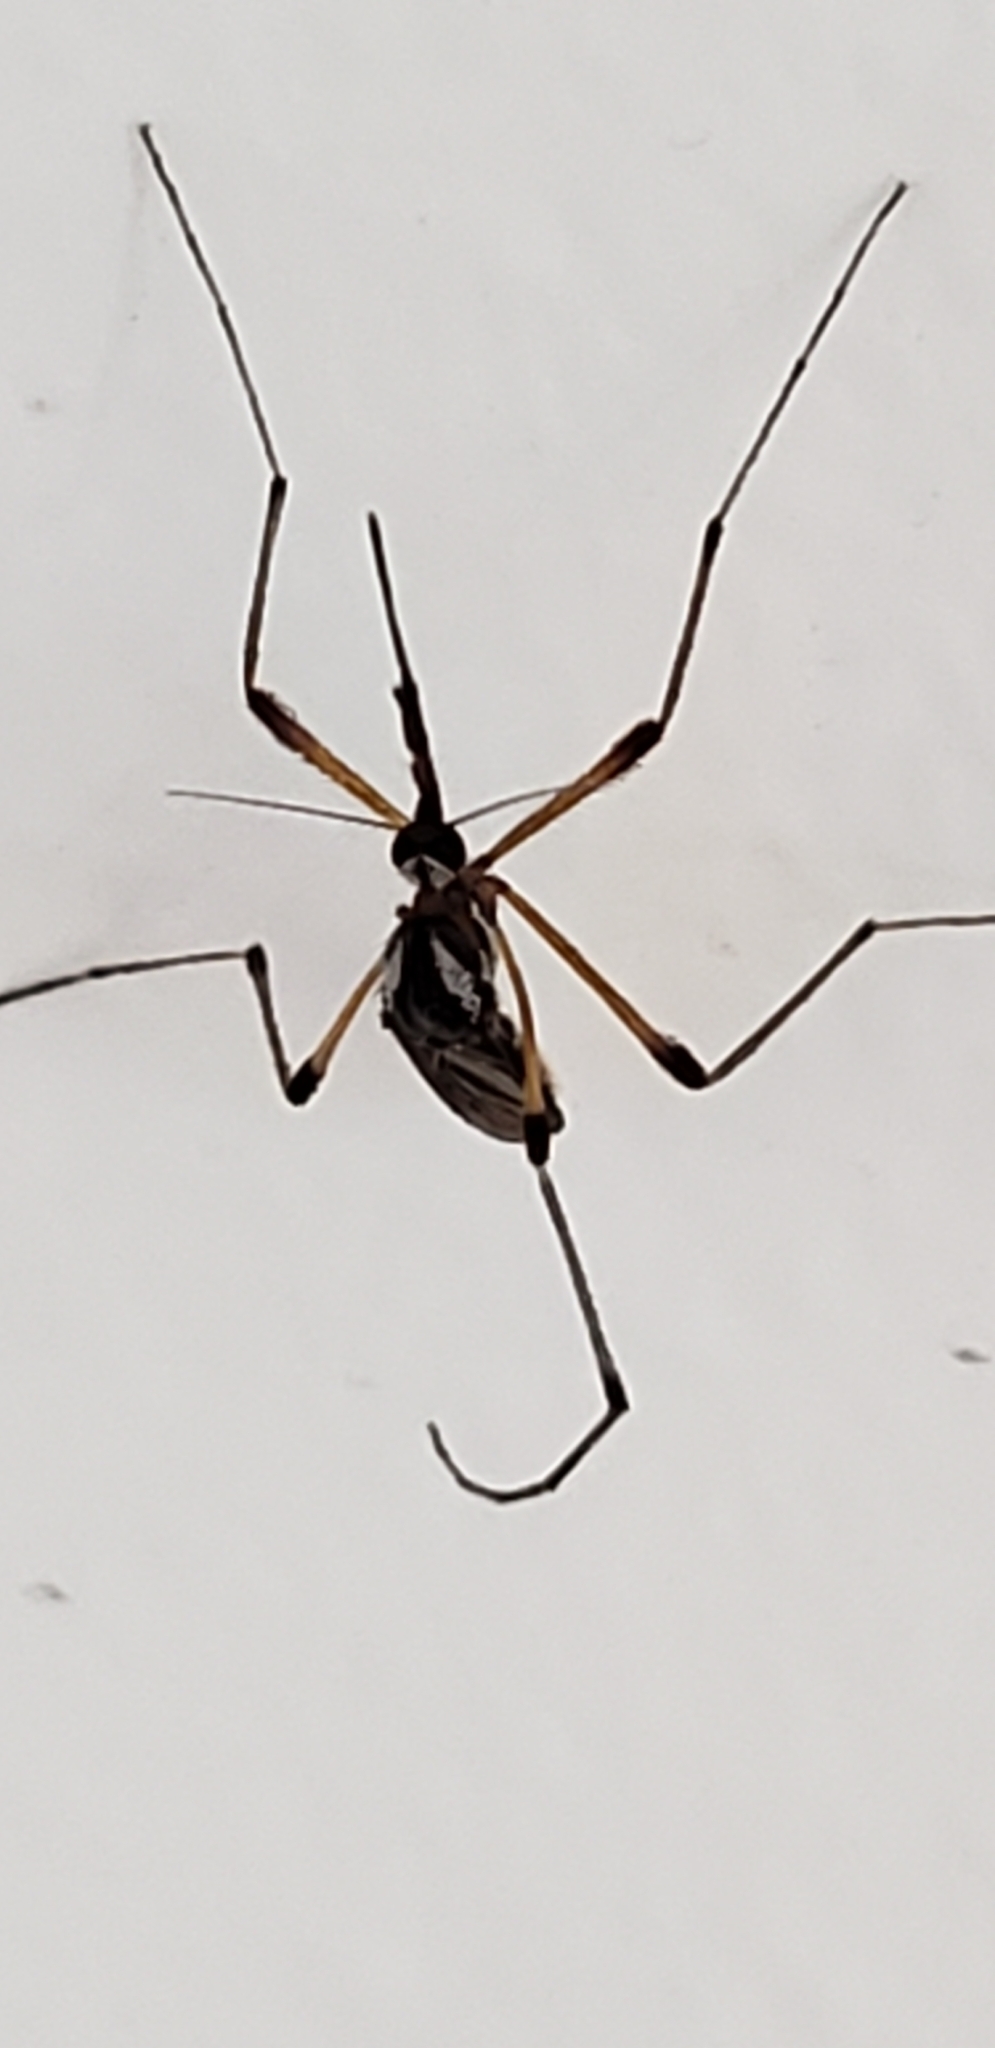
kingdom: Animalia
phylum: Arthropoda
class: Insecta
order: Diptera
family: Culicidae
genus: Psorophora
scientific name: Psorophora howardii
